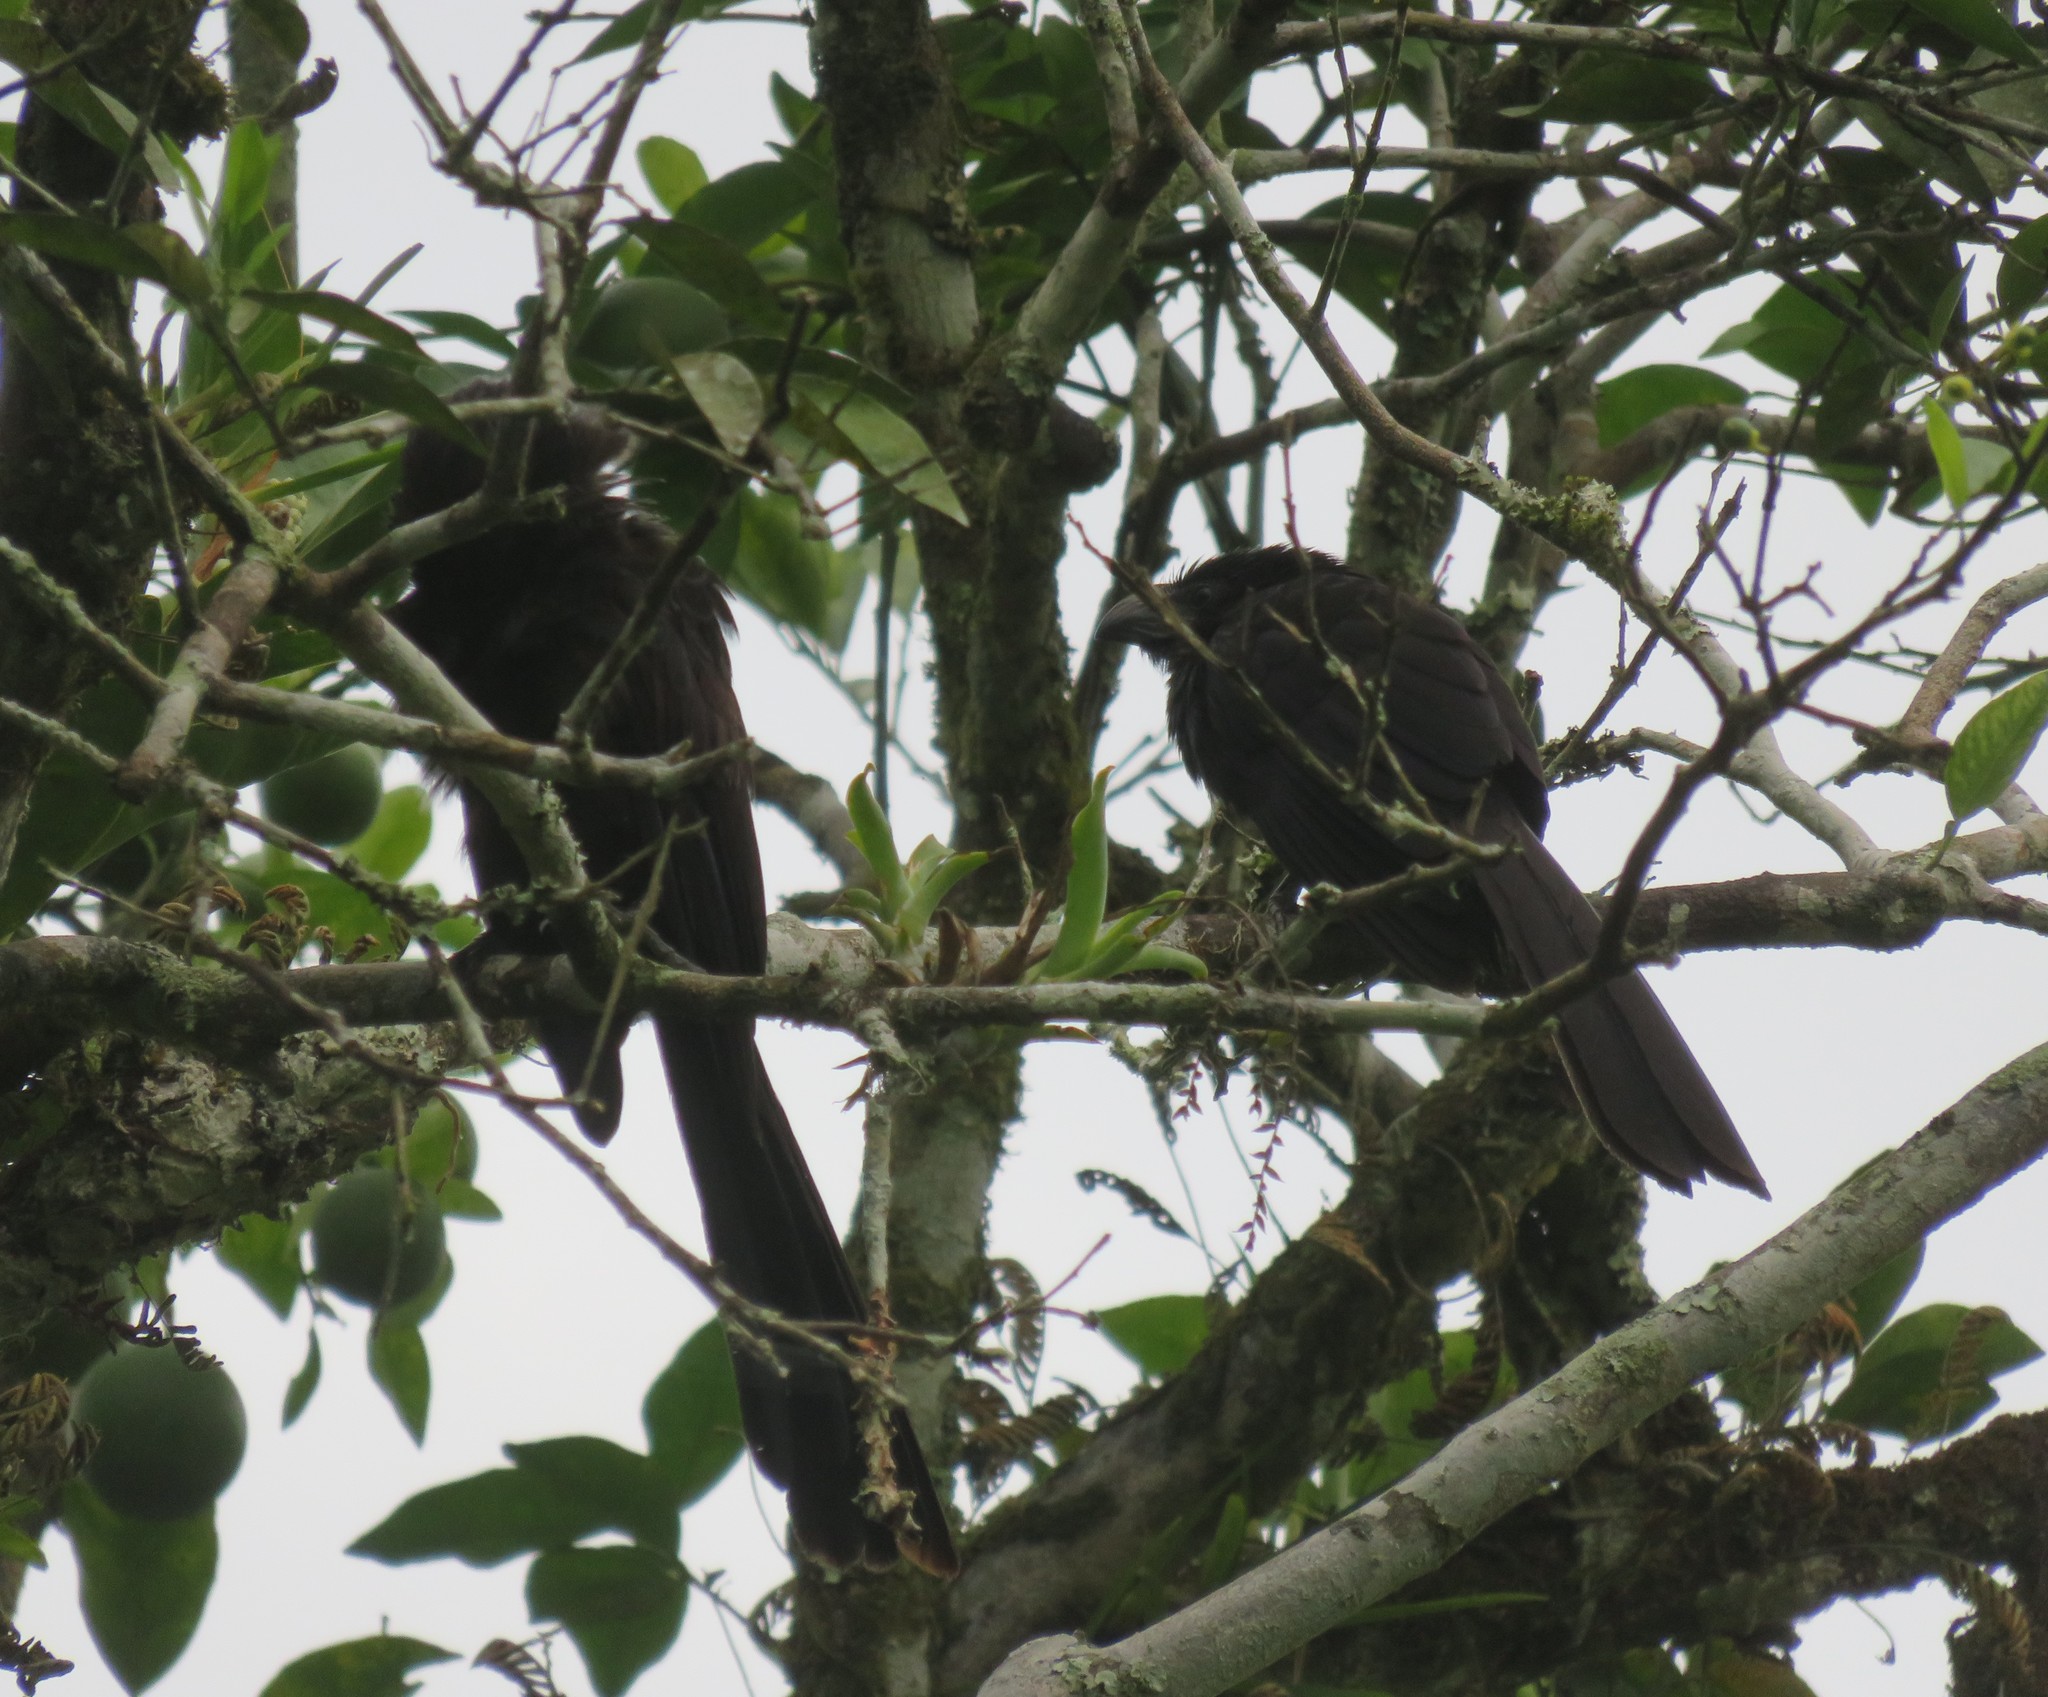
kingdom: Animalia
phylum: Chordata
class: Aves
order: Cuculiformes
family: Cuculidae
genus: Crotophaga
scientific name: Crotophaga sulcirostris
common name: Groove-billed ani
